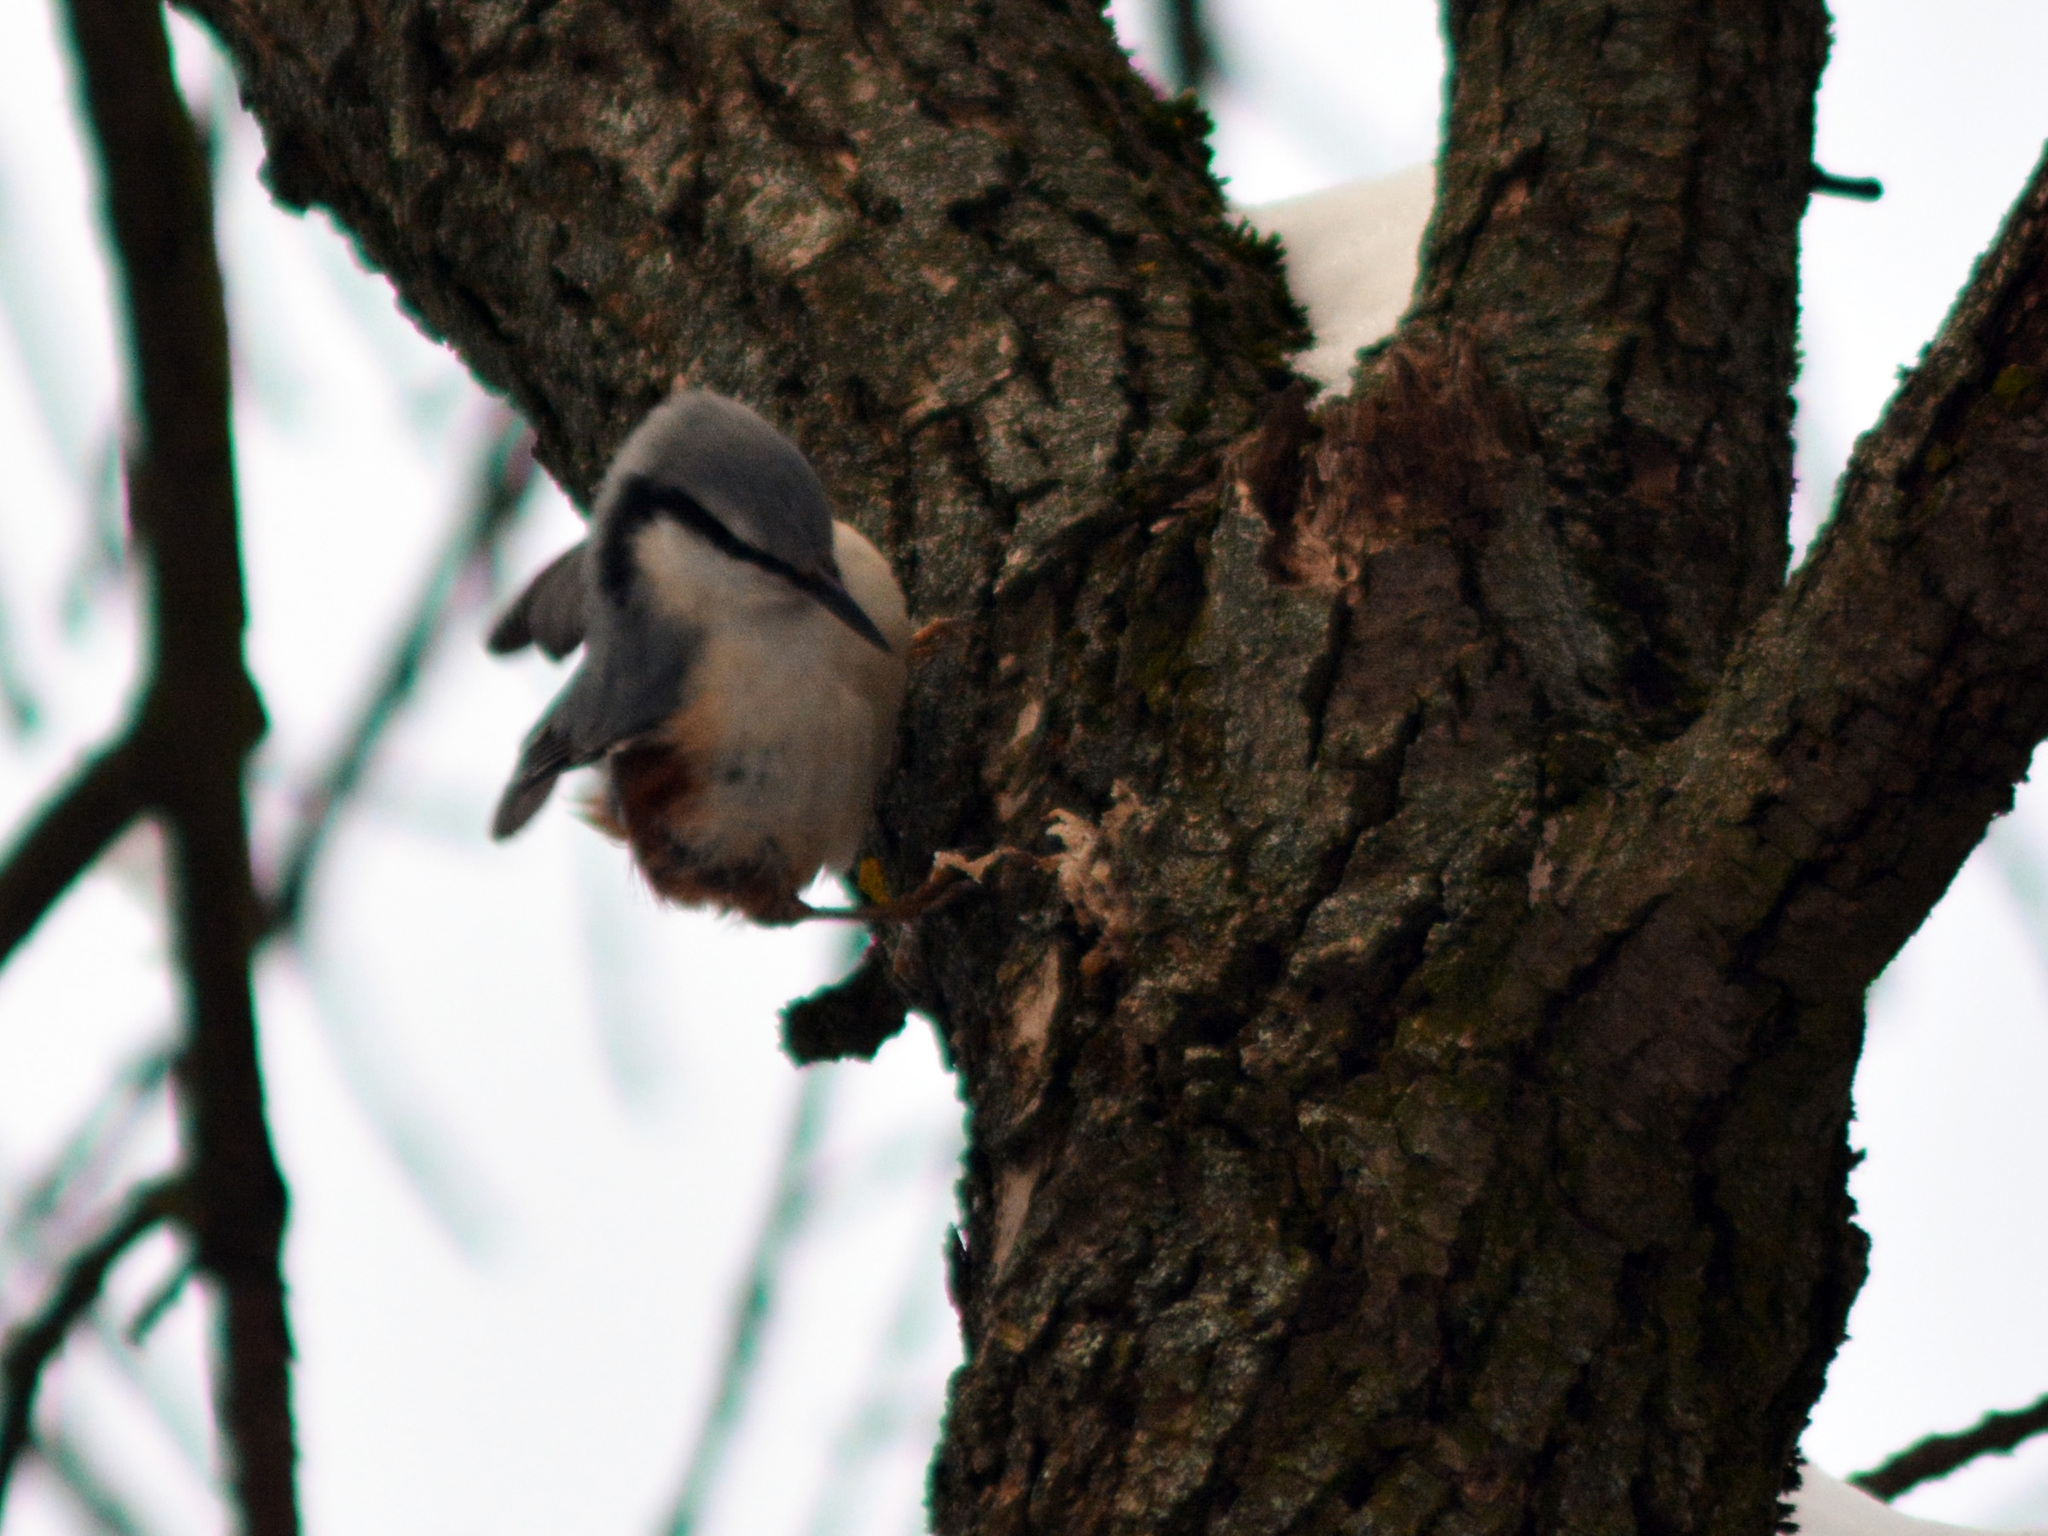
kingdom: Animalia
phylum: Chordata
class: Aves
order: Passeriformes
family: Sittidae
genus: Sitta
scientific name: Sitta europaea
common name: Eurasian nuthatch
